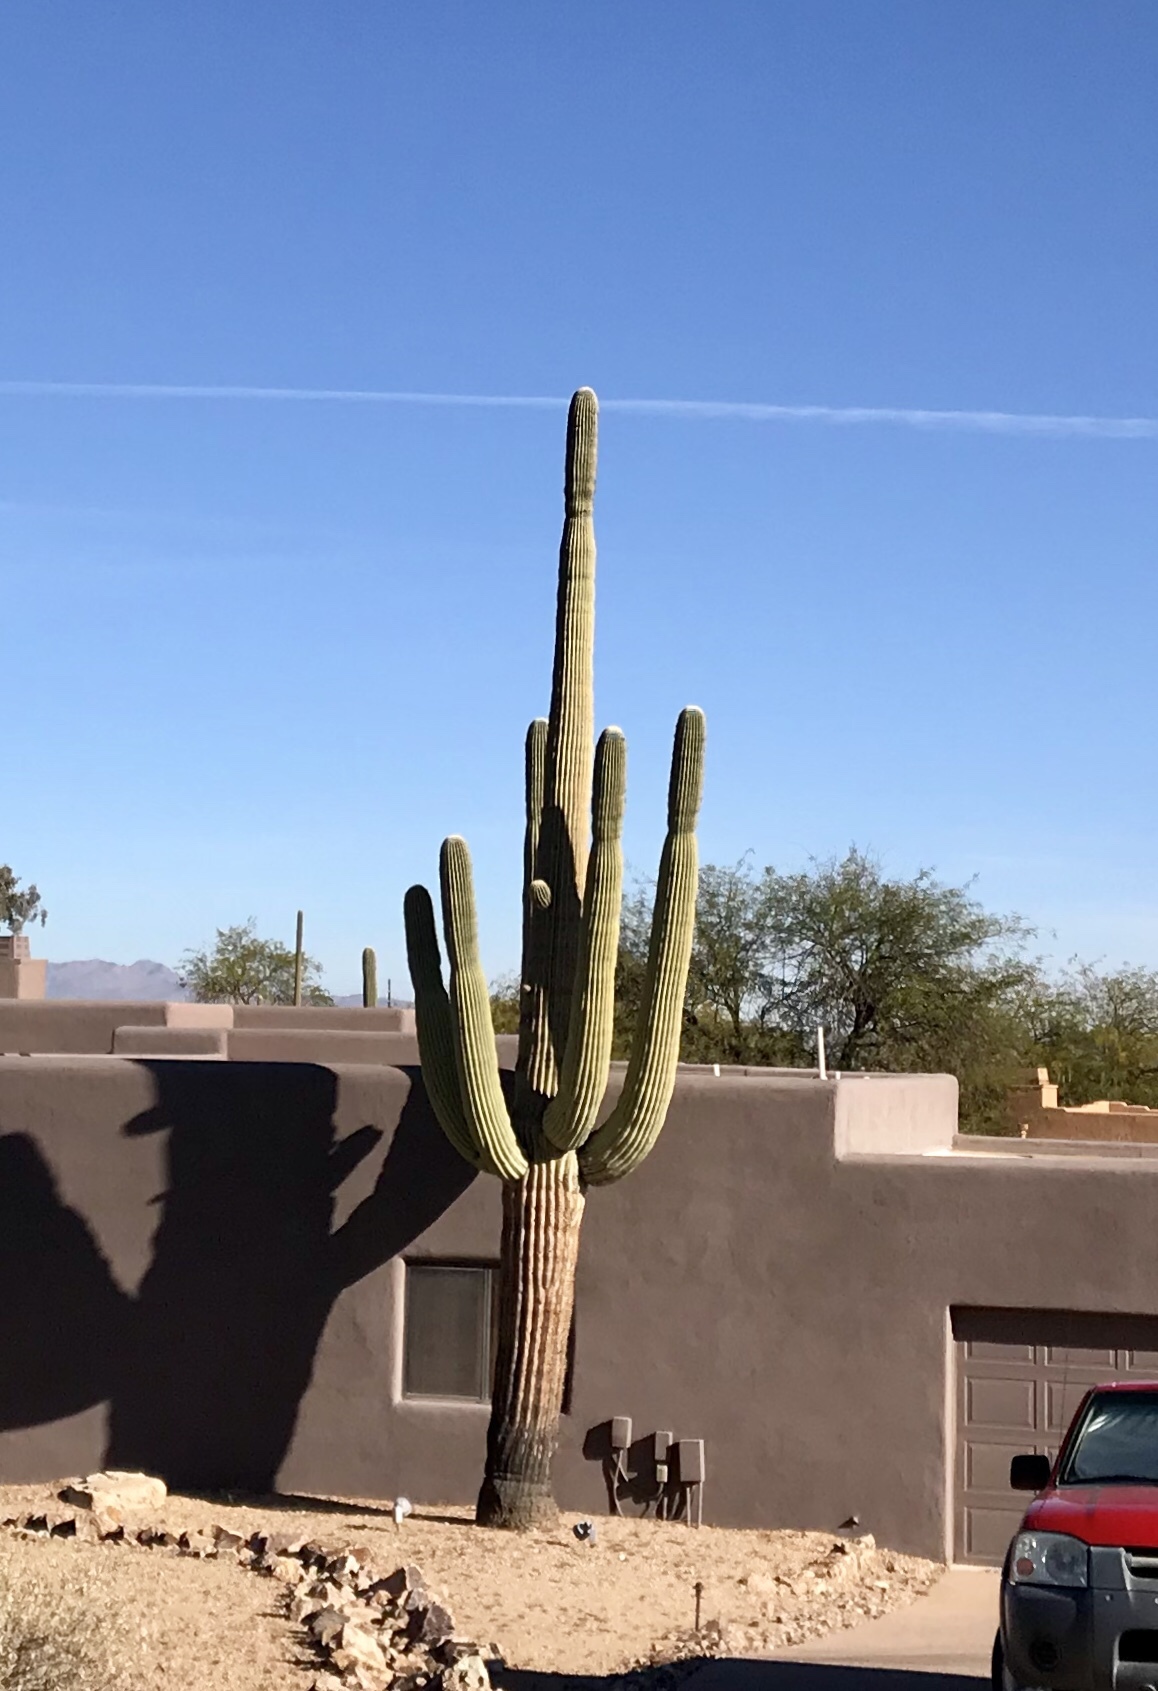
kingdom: Plantae
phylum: Tracheophyta
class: Magnoliopsida
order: Caryophyllales
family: Cactaceae
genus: Carnegiea
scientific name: Carnegiea gigantea
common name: Saguaro
